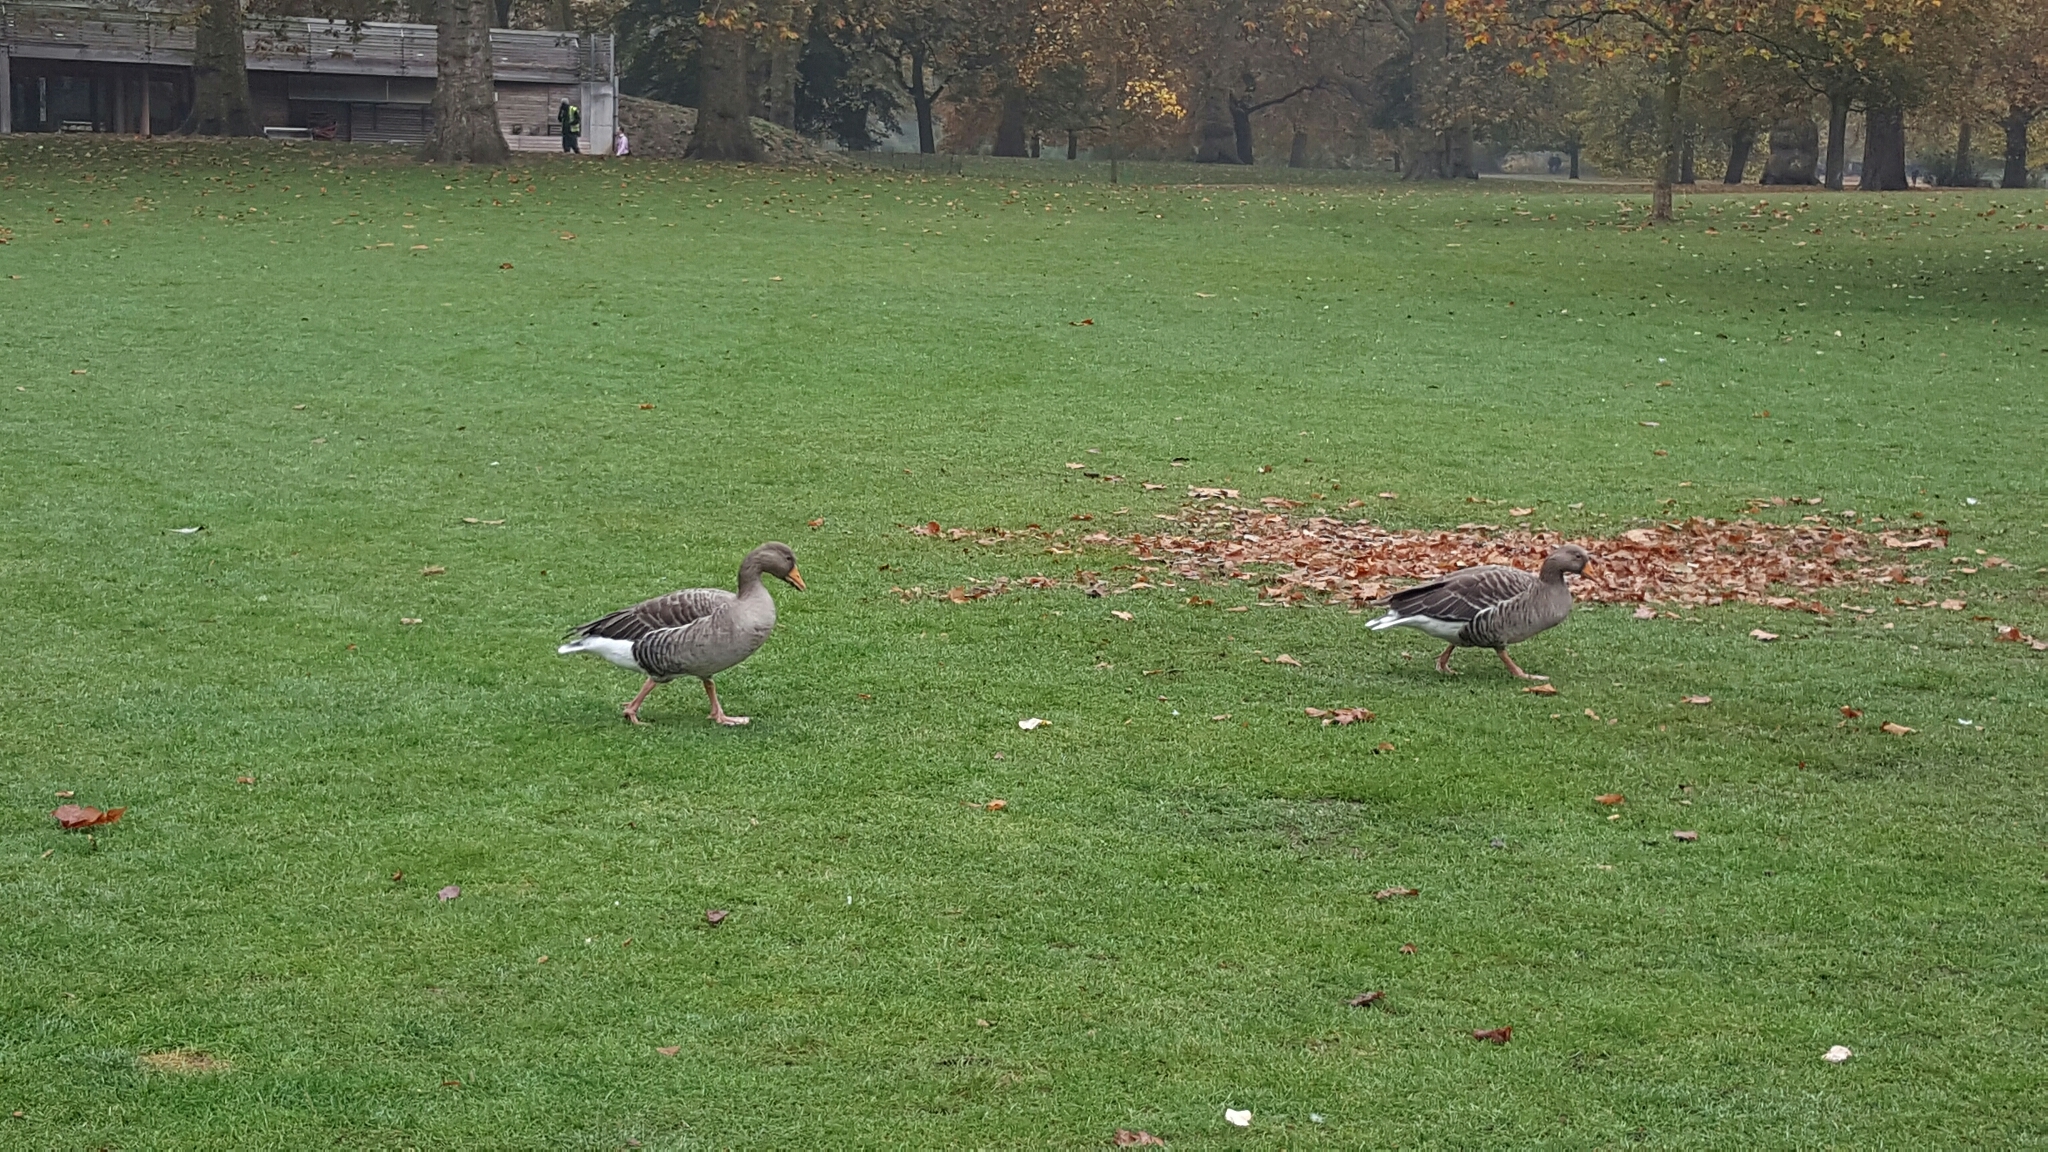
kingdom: Animalia
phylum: Chordata
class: Aves
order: Anseriformes
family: Anatidae
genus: Anser
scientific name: Anser anser
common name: Greylag goose
